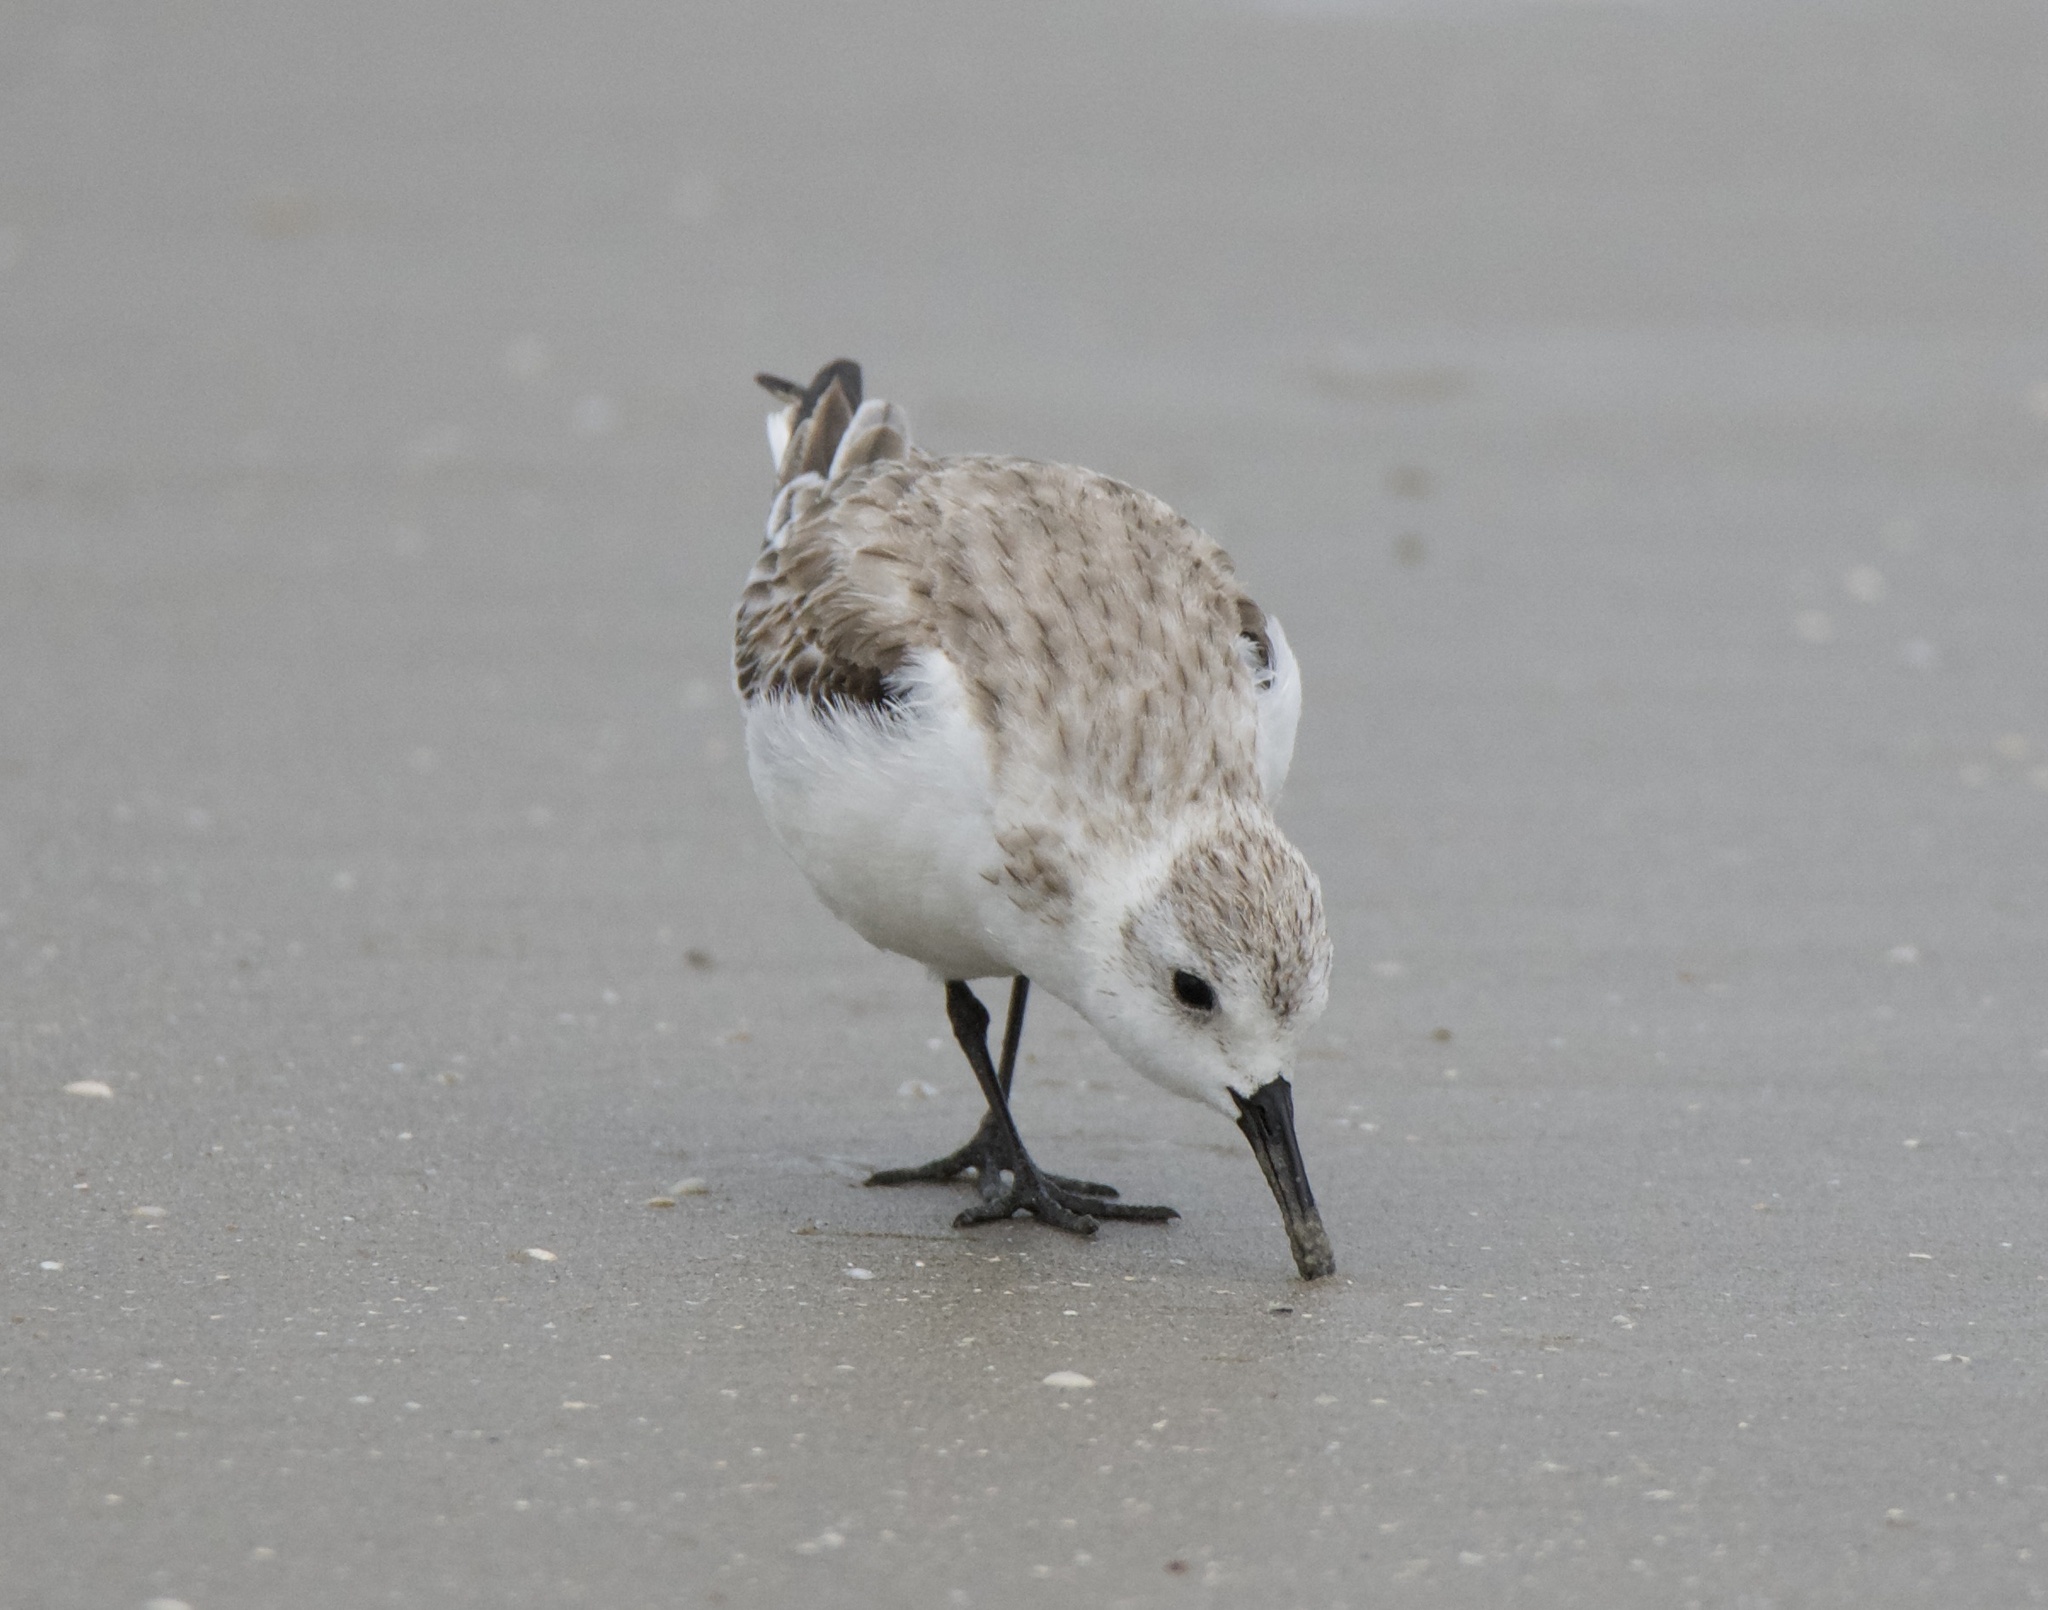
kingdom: Animalia
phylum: Chordata
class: Aves
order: Charadriiformes
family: Scolopacidae
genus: Calidris
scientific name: Calidris alba
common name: Sanderling
